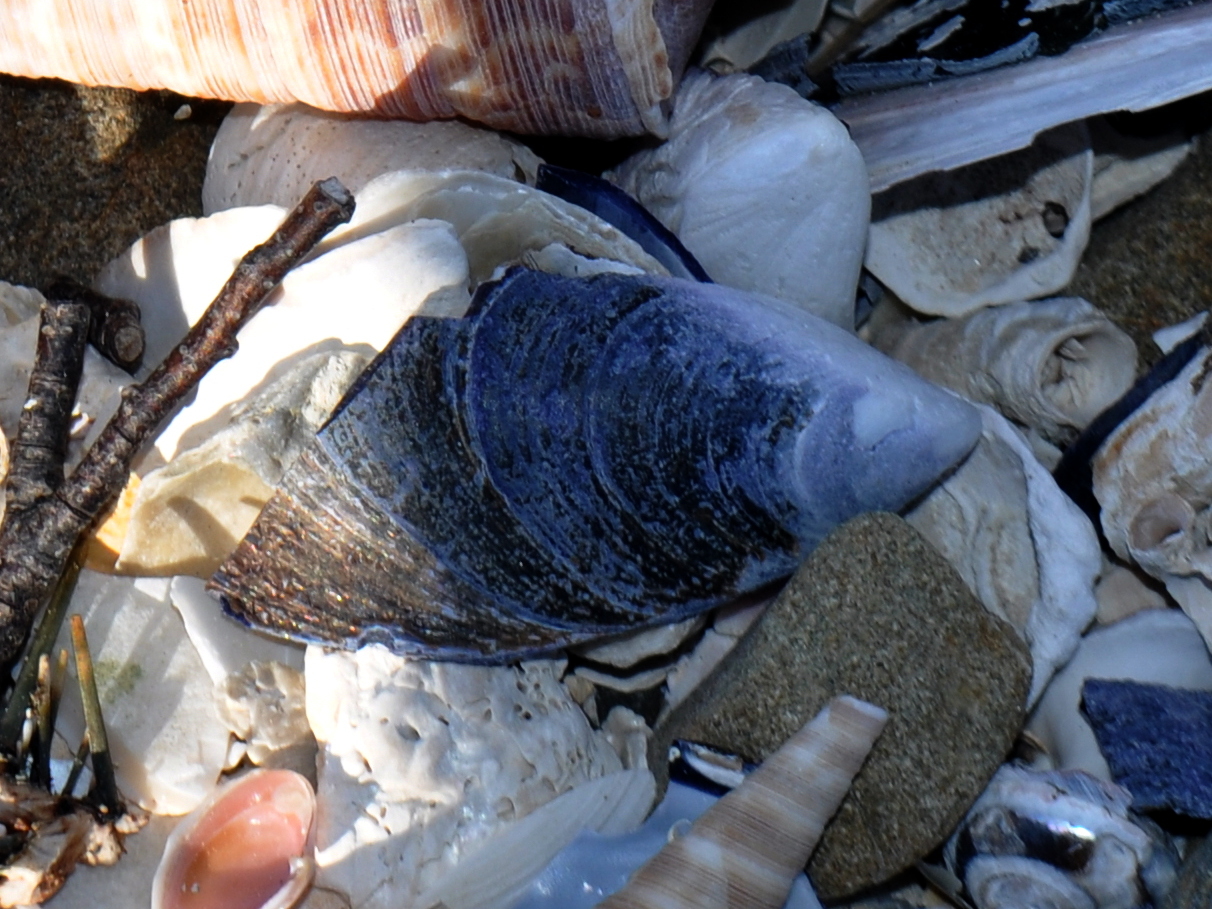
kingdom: Animalia
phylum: Mollusca
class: Bivalvia
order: Mytilida
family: Mytilidae
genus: Mytilus
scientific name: Mytilus planulatus
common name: Australian mussel
